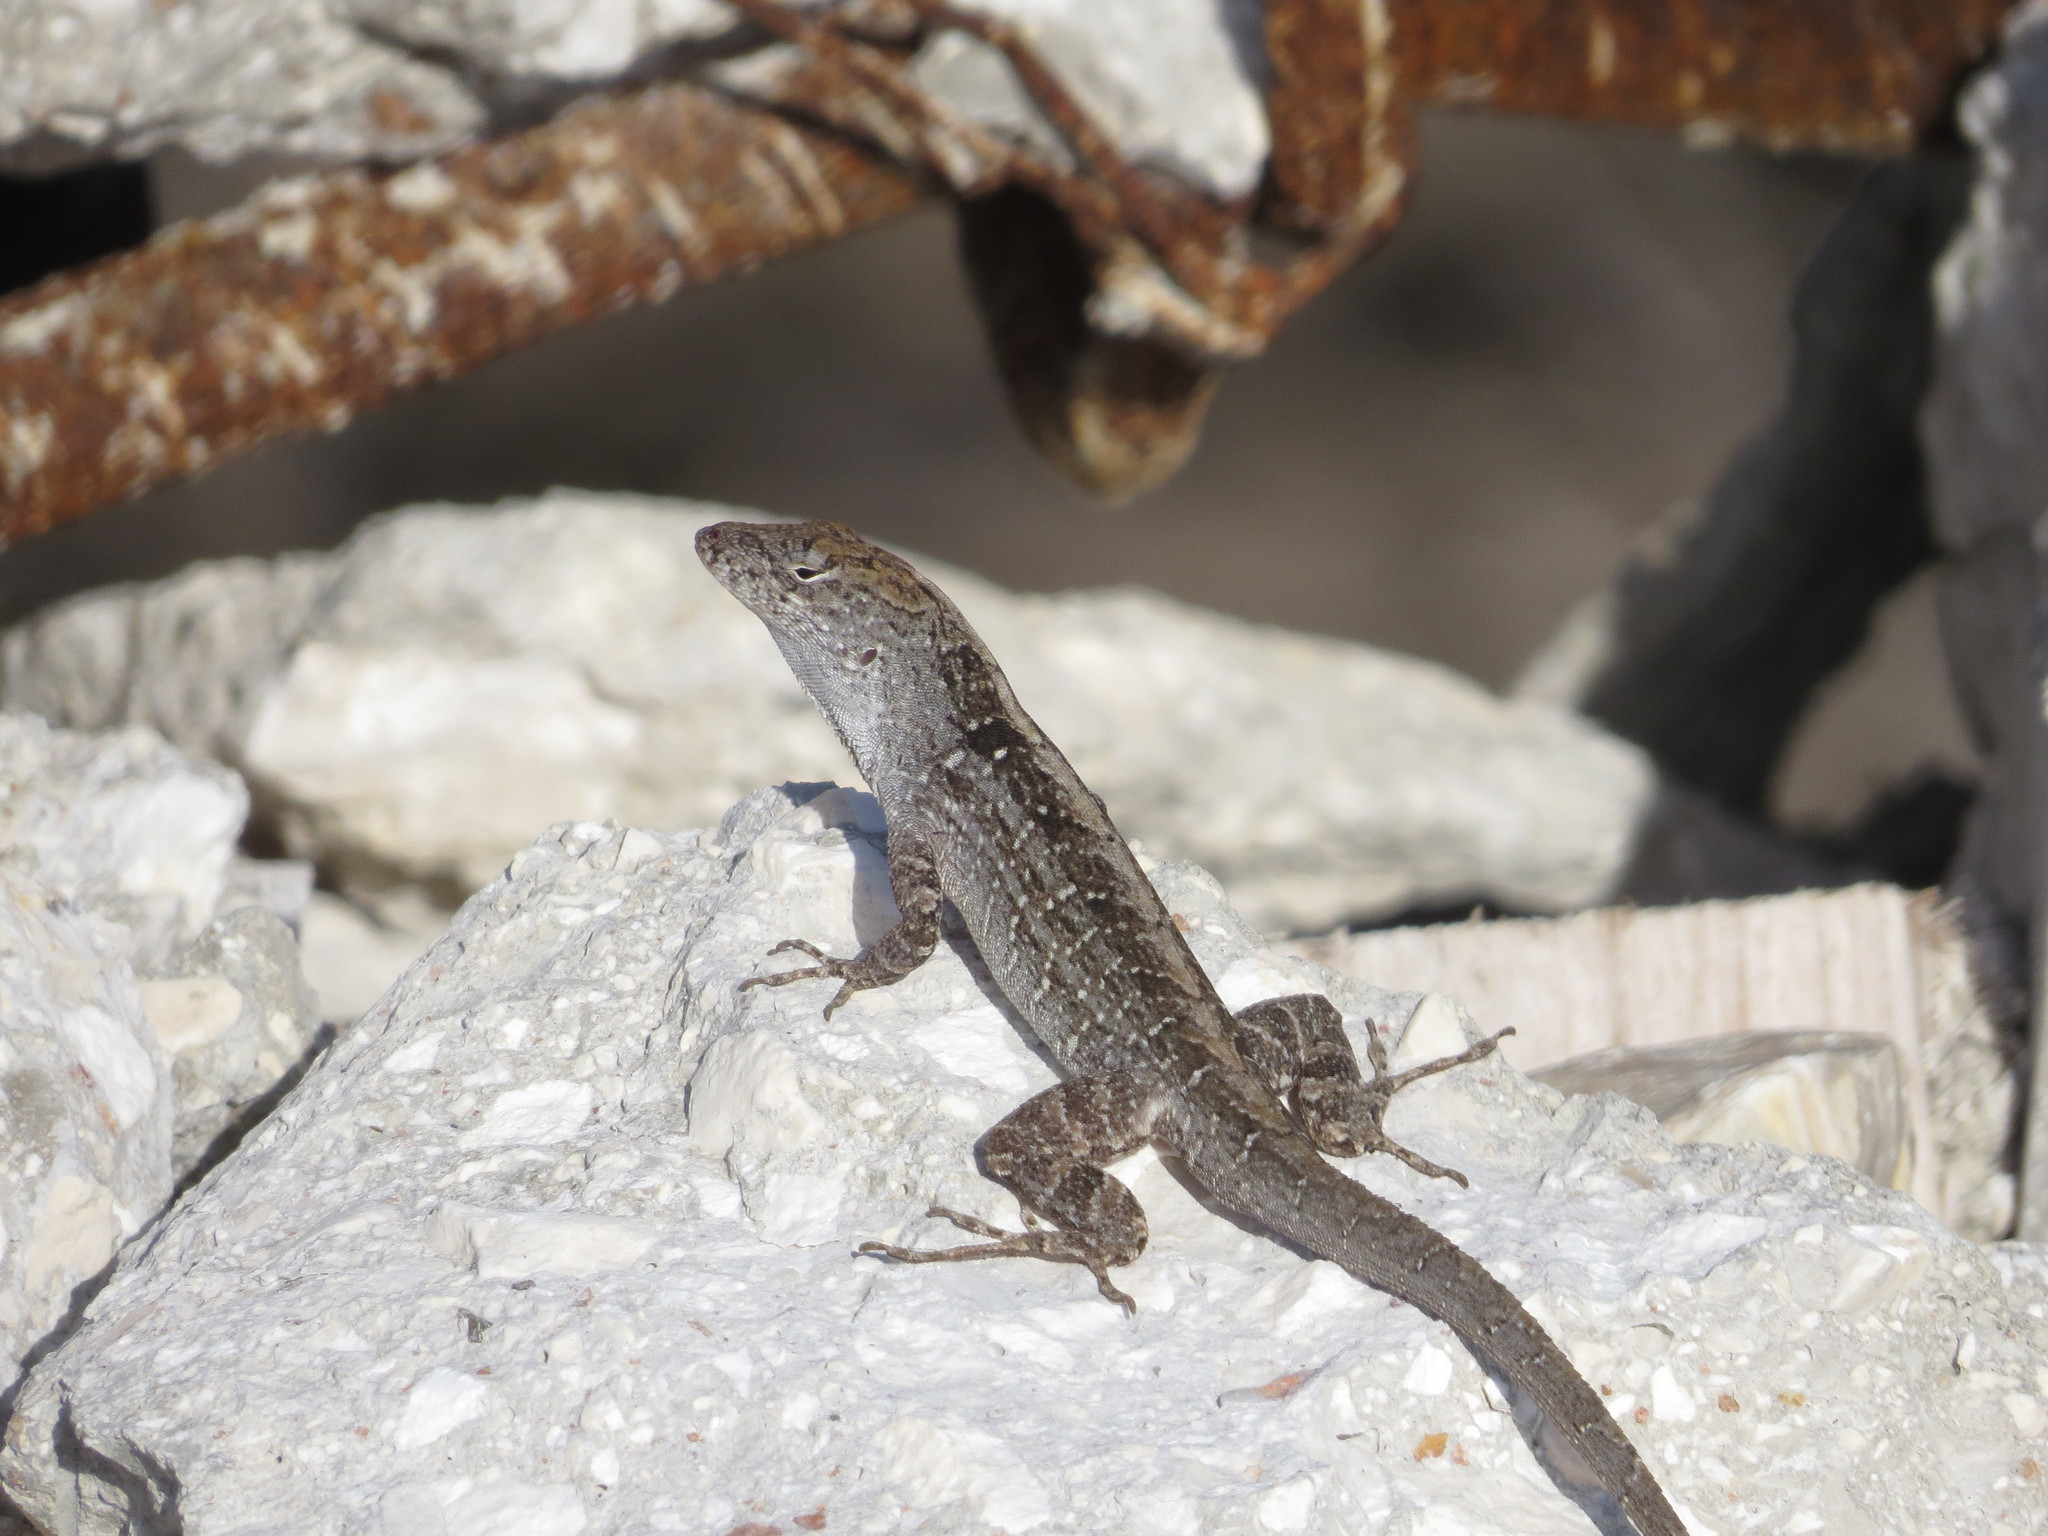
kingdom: Animalia
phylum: Chordata
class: Squamata
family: Dactyloidae
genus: Anolis
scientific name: Anolis sagrei
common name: Brown anole
